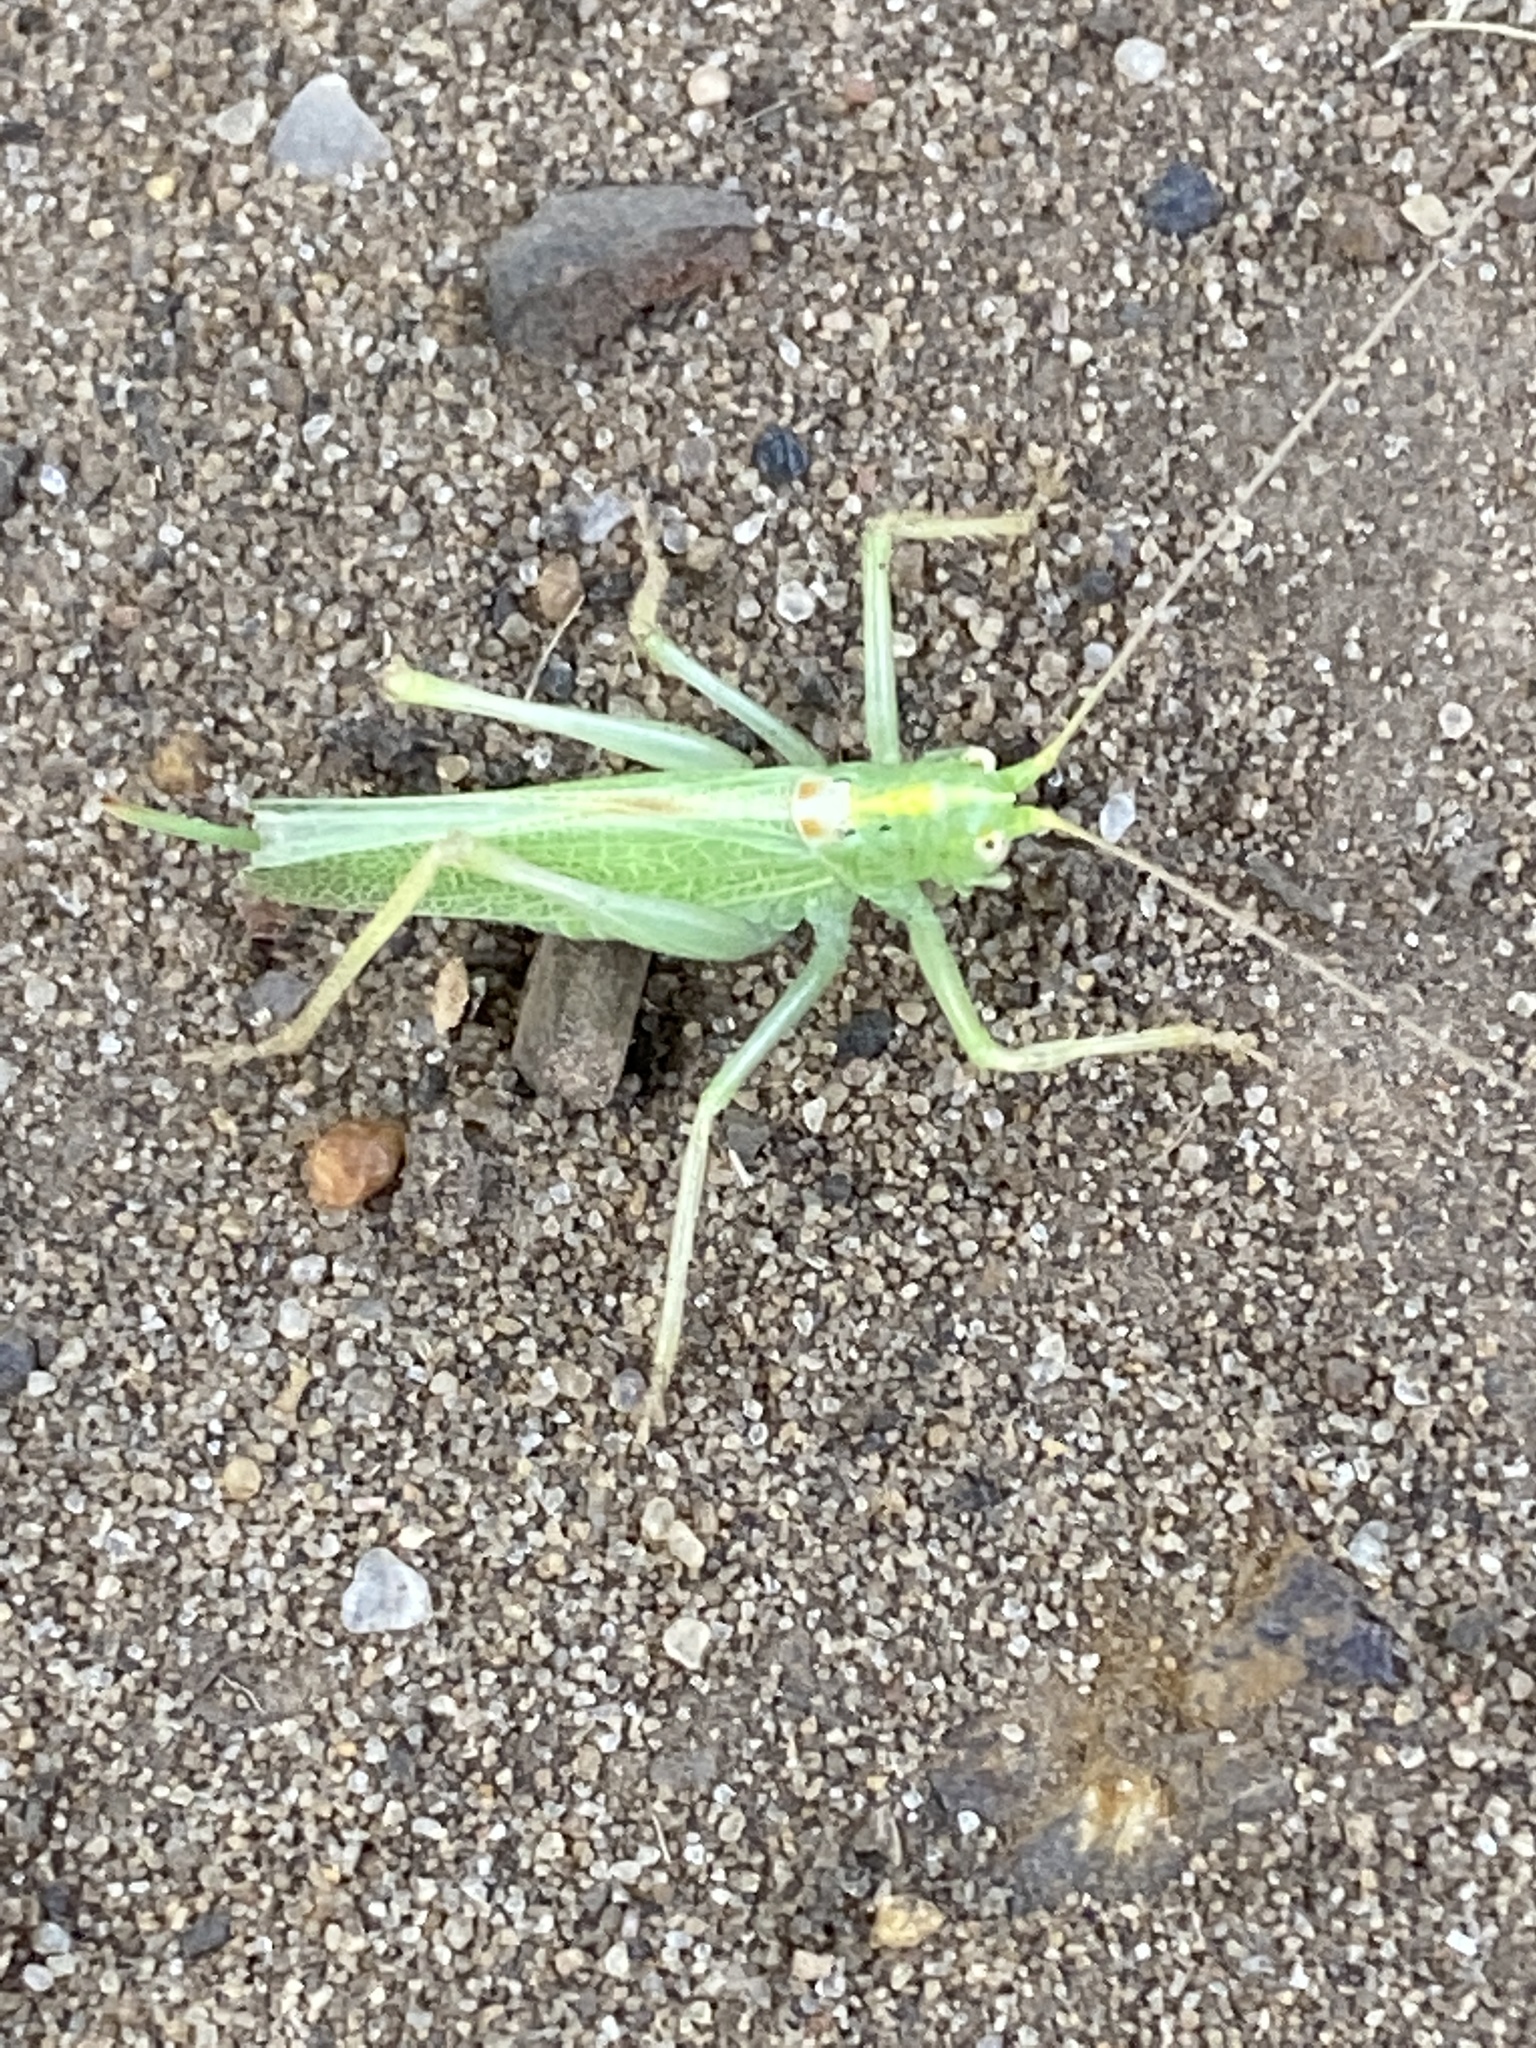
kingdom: Animalia
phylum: Arthropoda
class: Insecta
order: Orthoptera
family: Tettigoniidae
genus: Meconema
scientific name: Meconema thalassinum
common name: Oak bush-cricket
